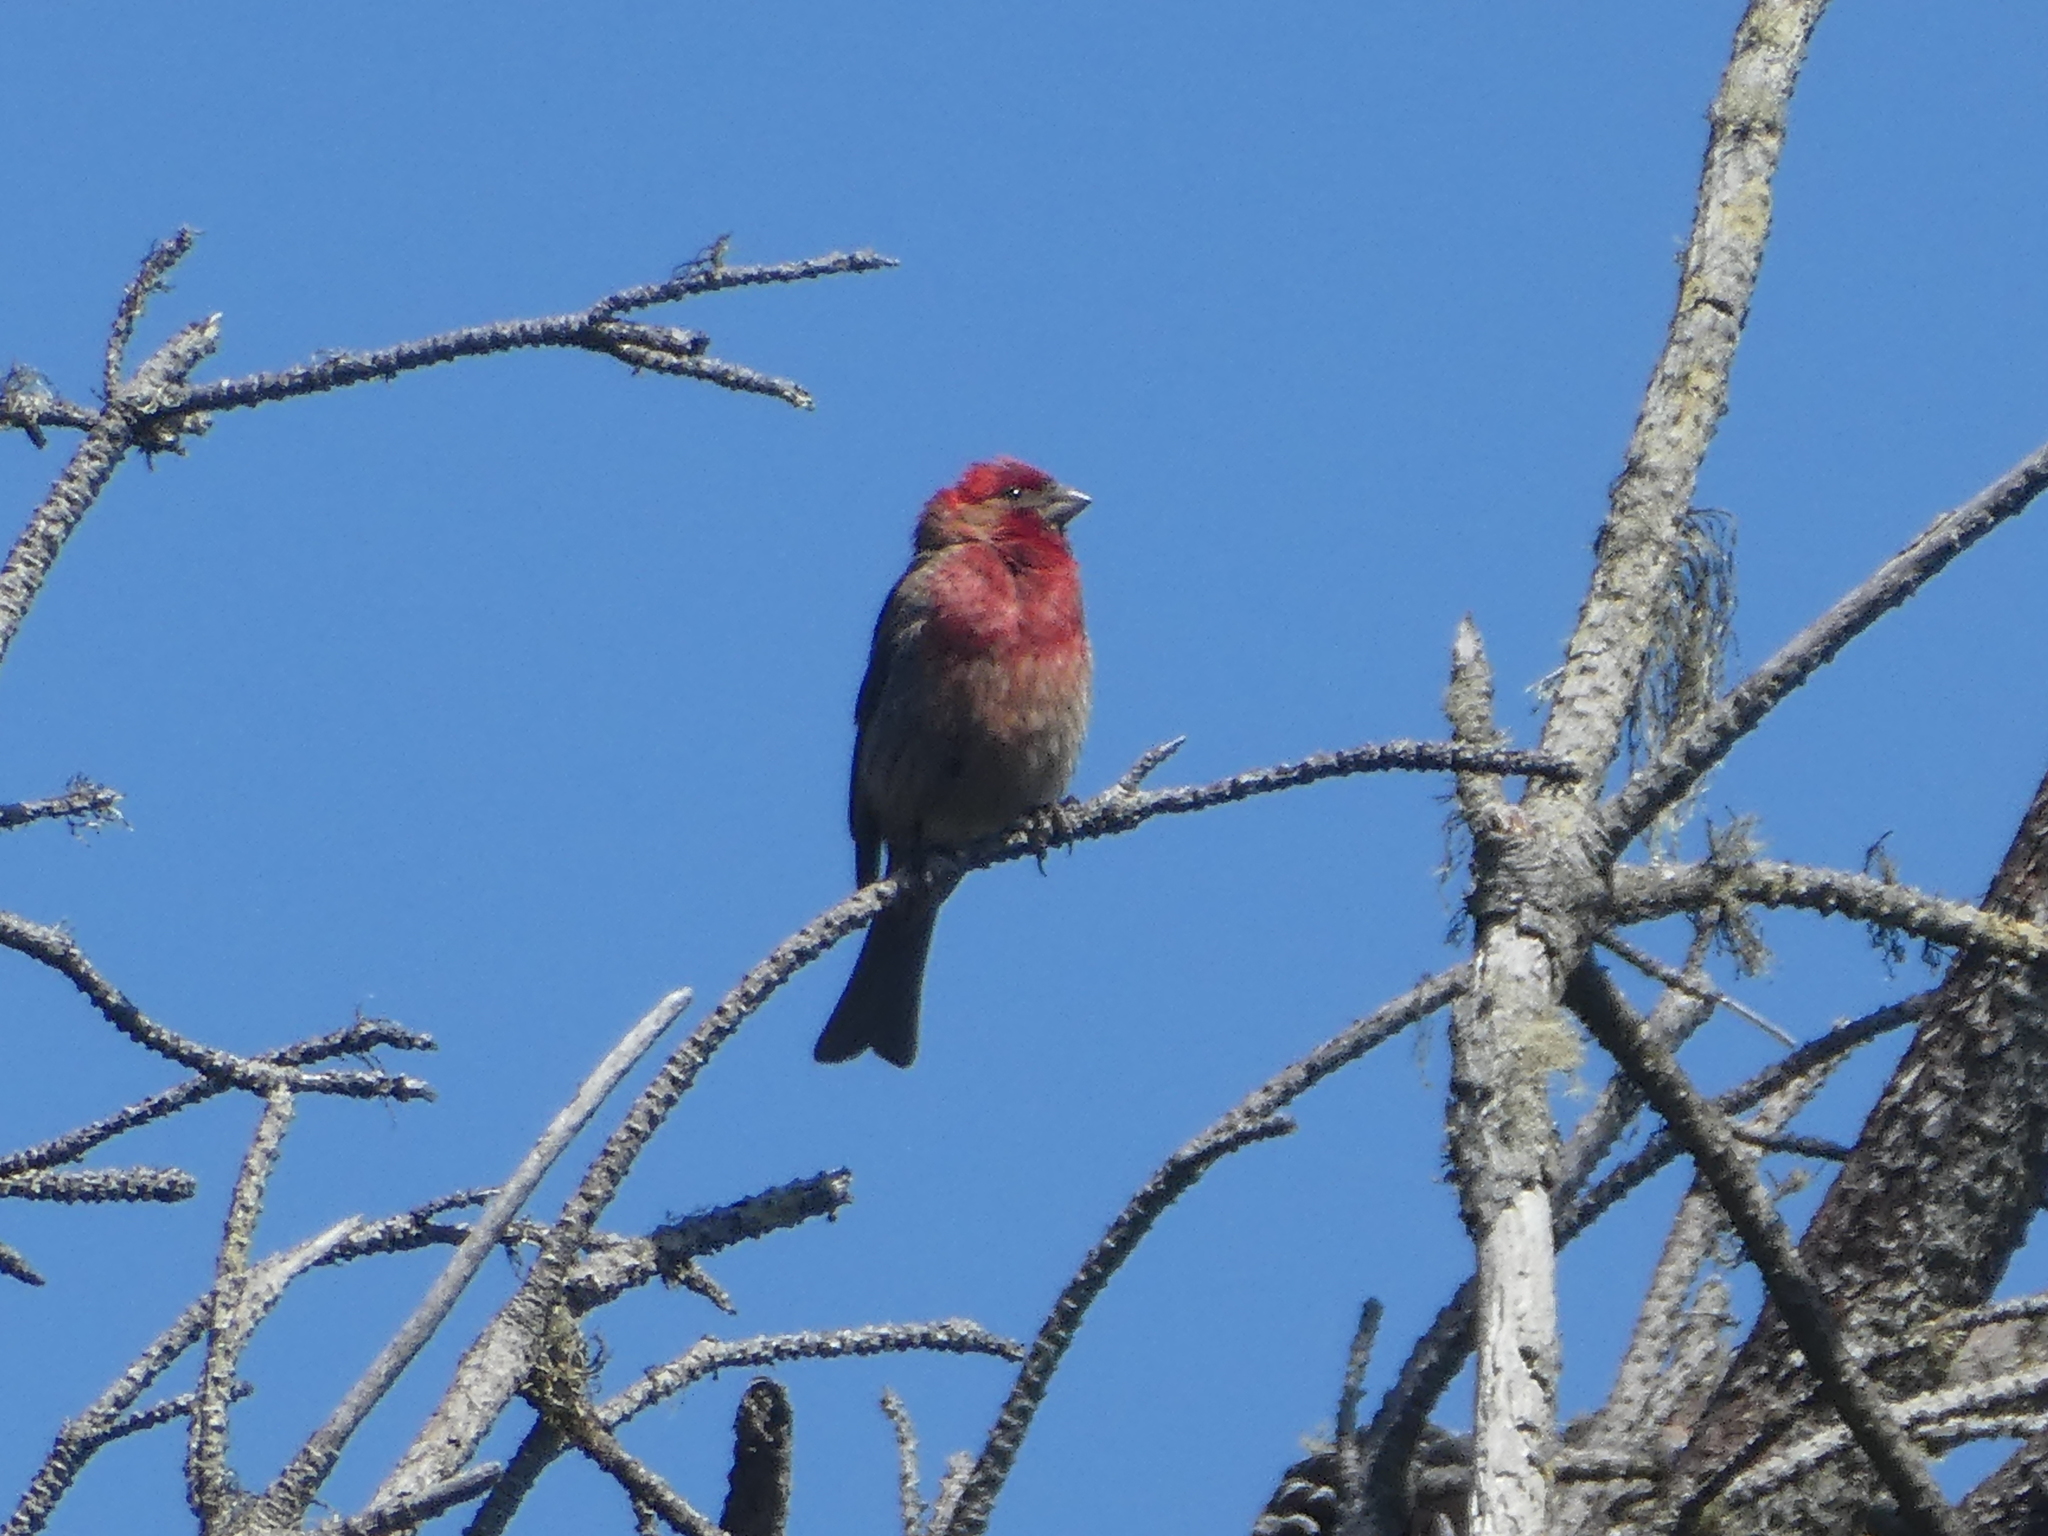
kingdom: Animalia
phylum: Chordata
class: Aves
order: Passeriformes
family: Fringillidae
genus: Haemorhous
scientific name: Haemorhous mexicanus
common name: House finch
